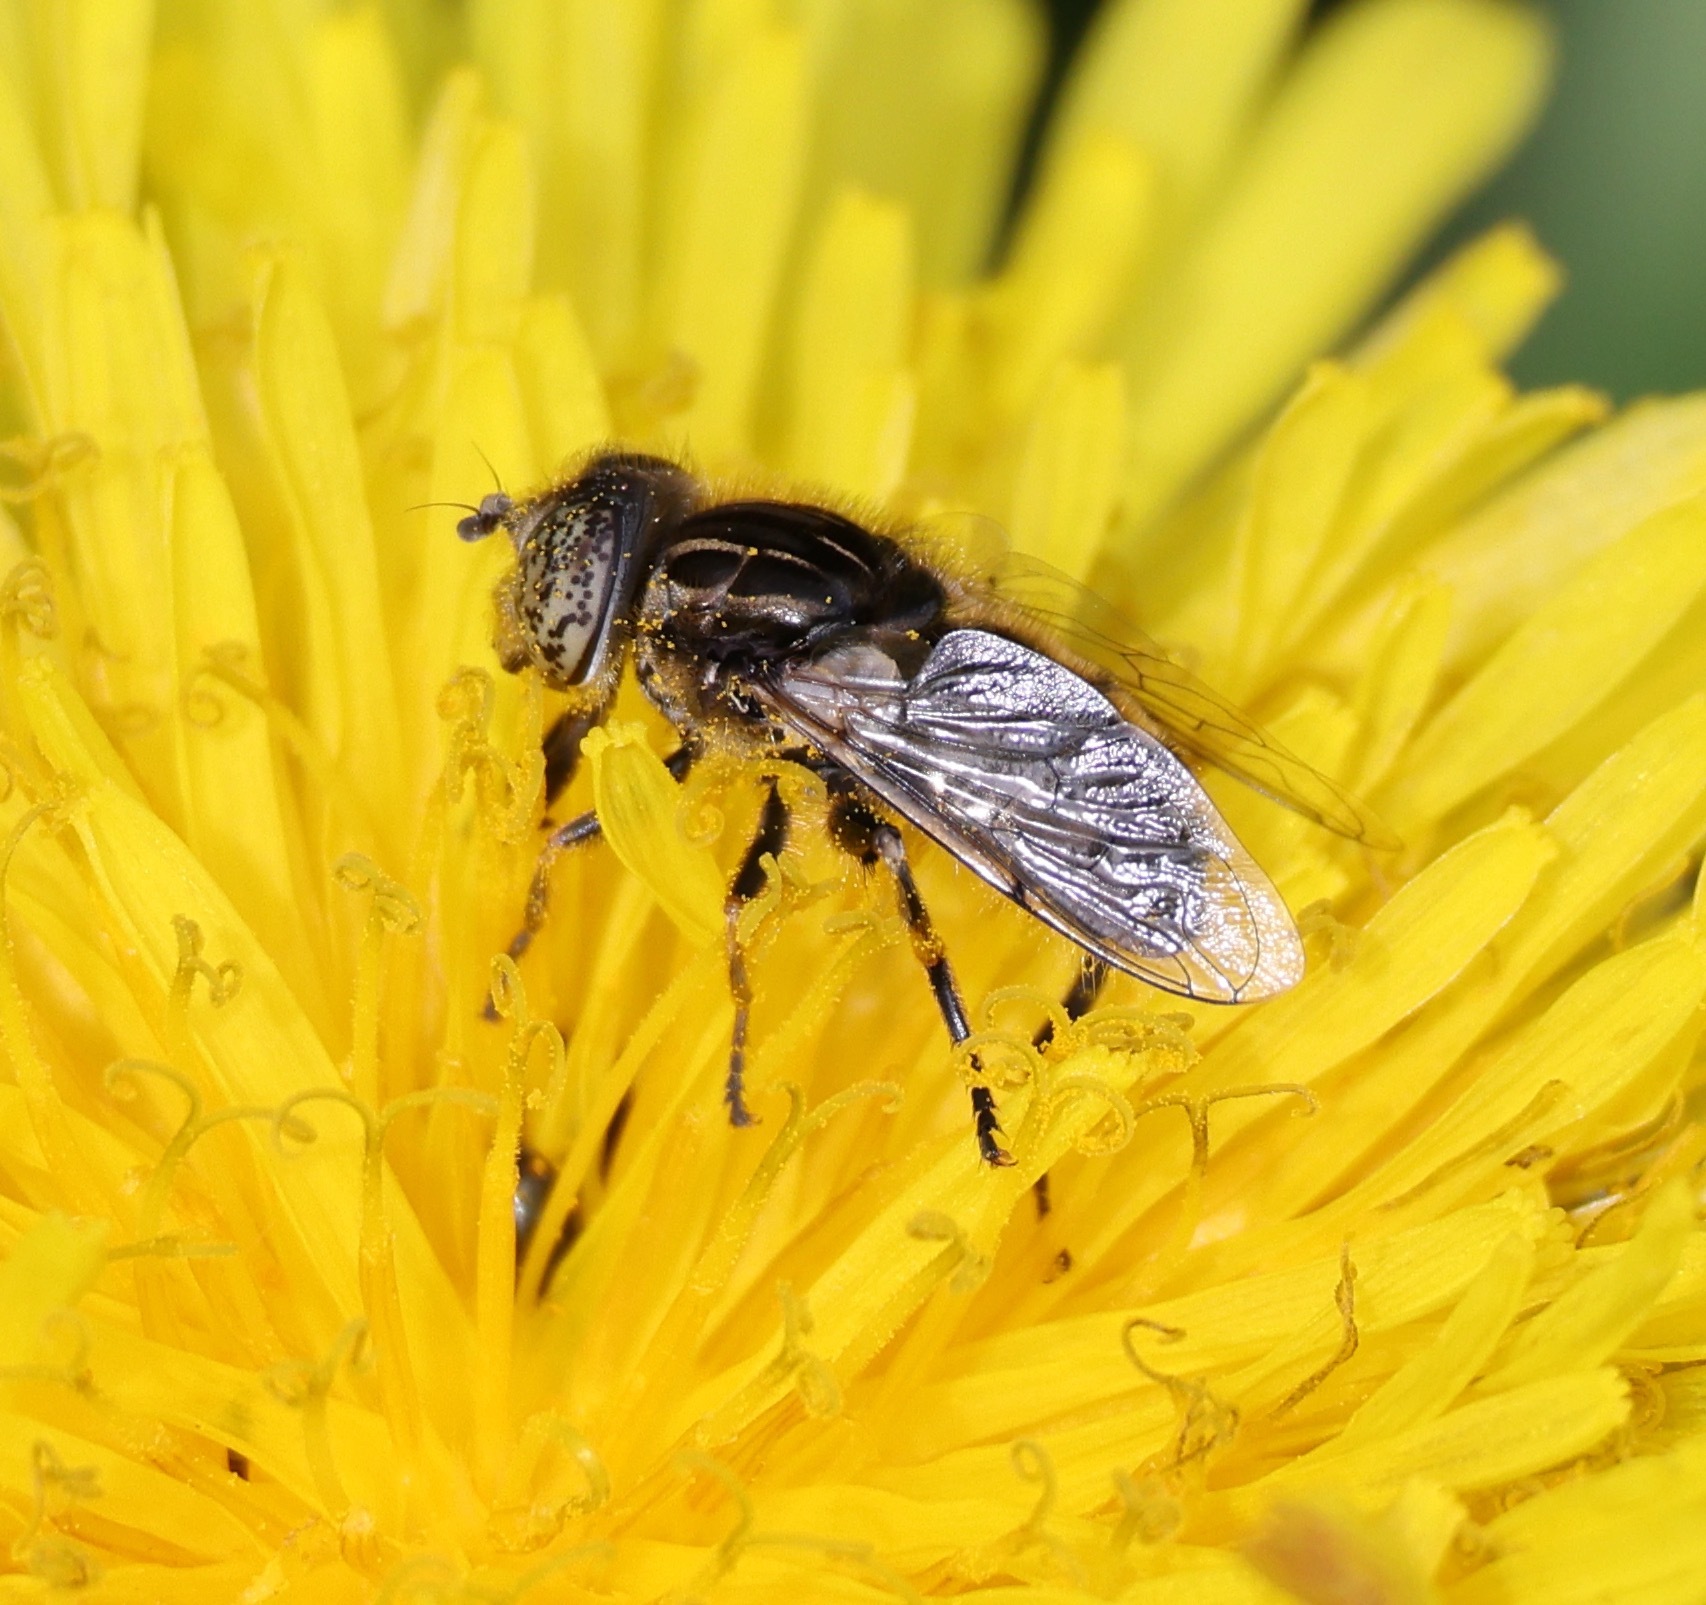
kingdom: Animalia
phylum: Arthropoda
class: Insecta
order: Diptera
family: Syrphidae
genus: Eristalinus
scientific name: Eristalinus sepulchralis
